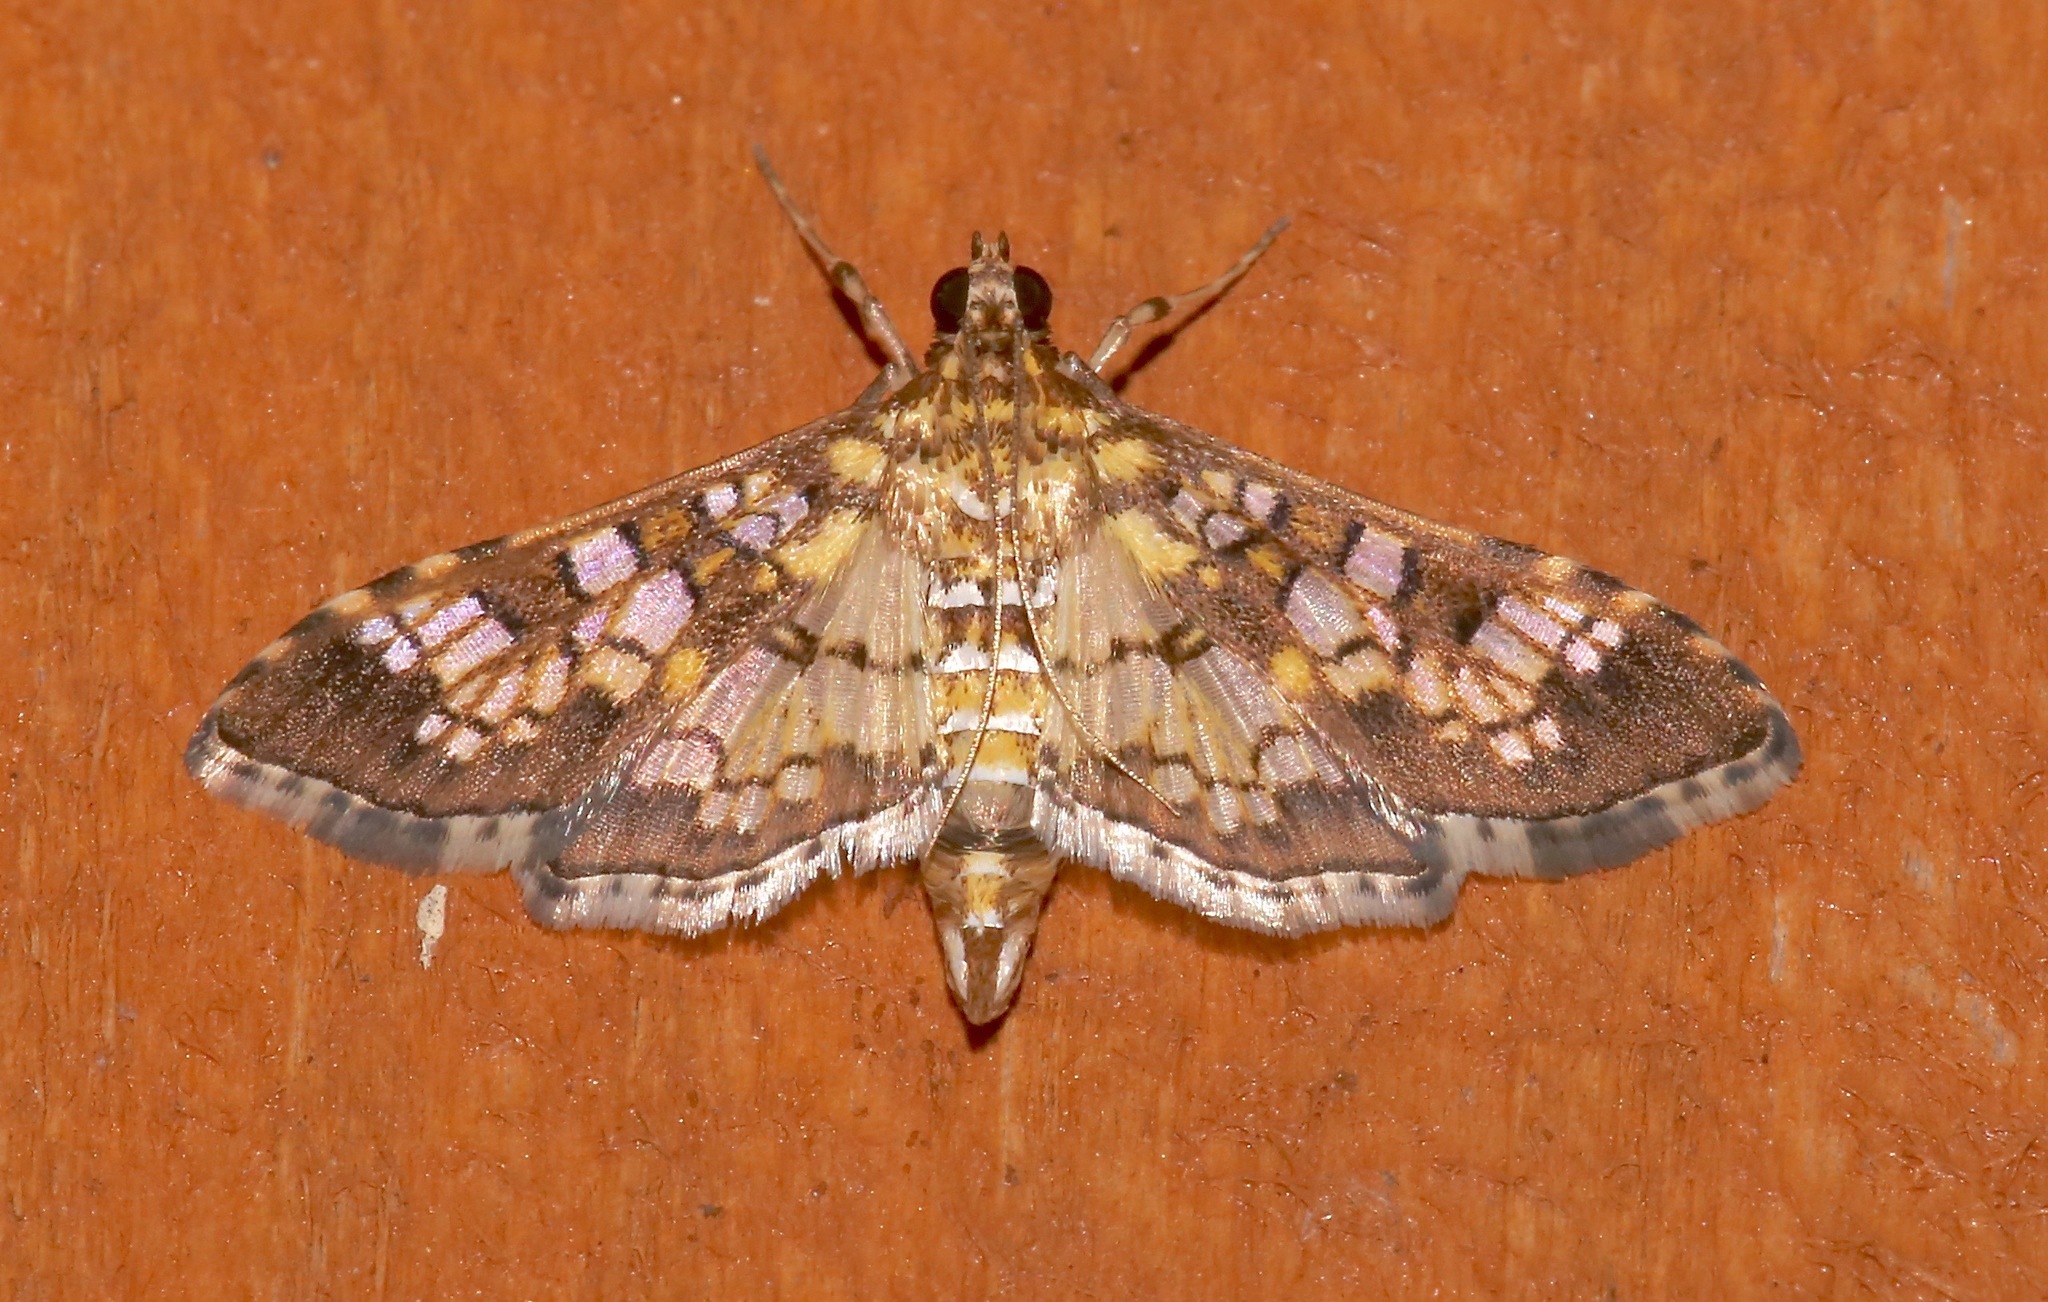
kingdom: Animalia
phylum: Arthropoda
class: Insecta
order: Lepidoptera
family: Crambidae
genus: Samea
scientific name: Samea ecclesialis
